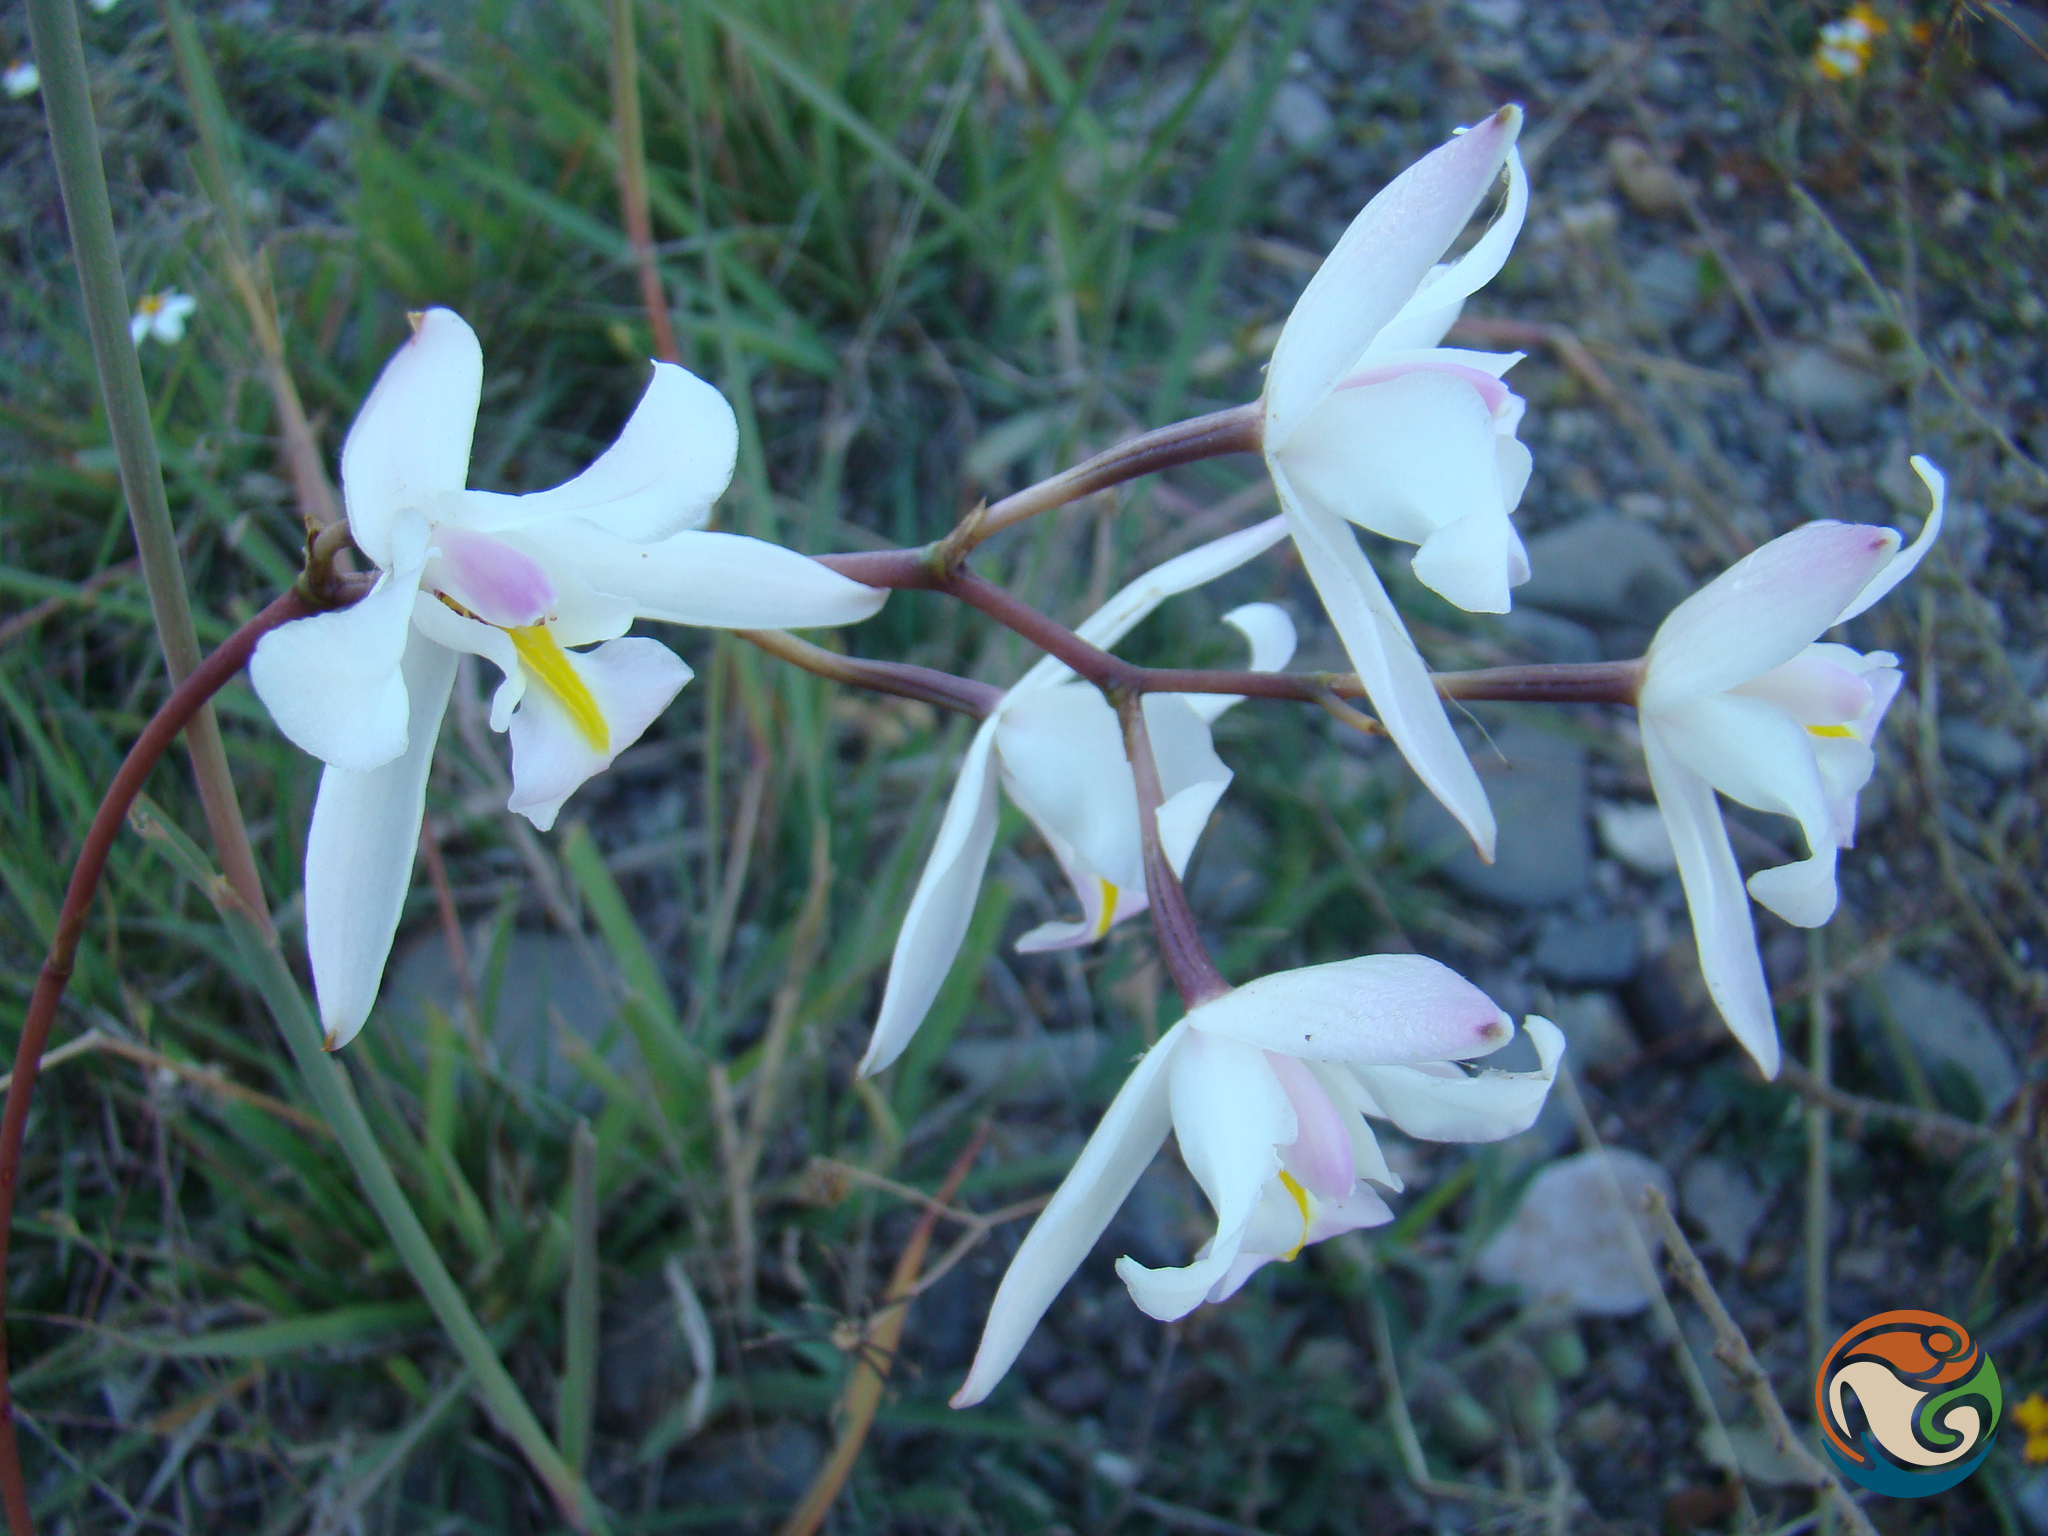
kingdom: Plantae
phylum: Tracheophyta
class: Liliopsida
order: Asparagales
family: Orchidaceae
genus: Laelia
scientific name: Laelia albida
